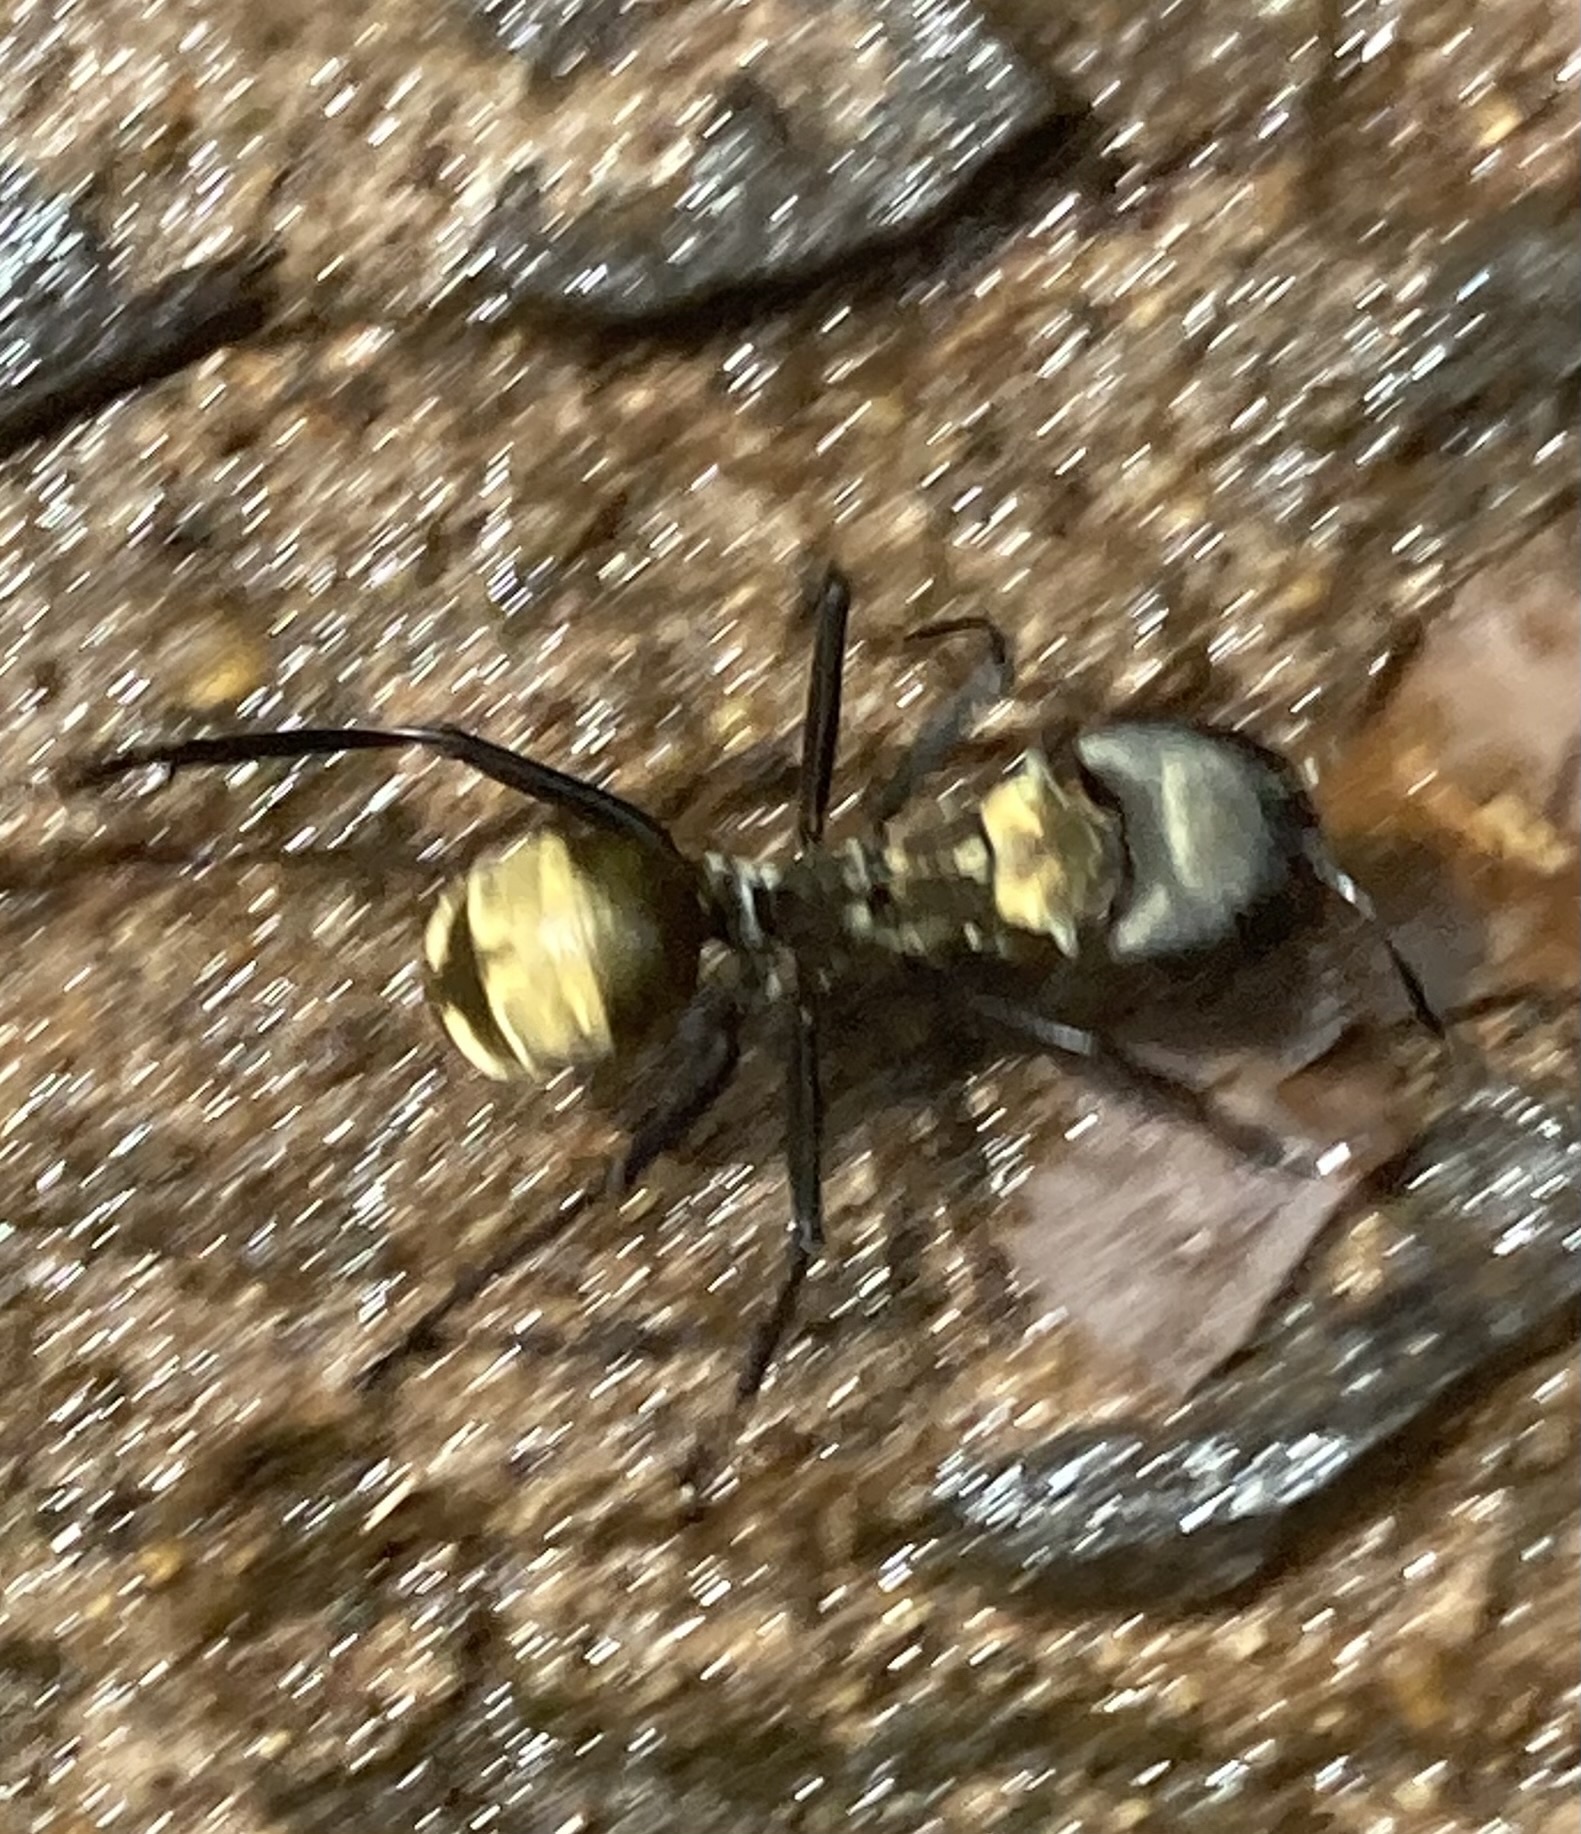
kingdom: Animalia
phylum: Arthropoda
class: Insecta
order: Hymenoptera
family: Formicidae
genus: Camponotus
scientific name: Camponotus sericeiventris
